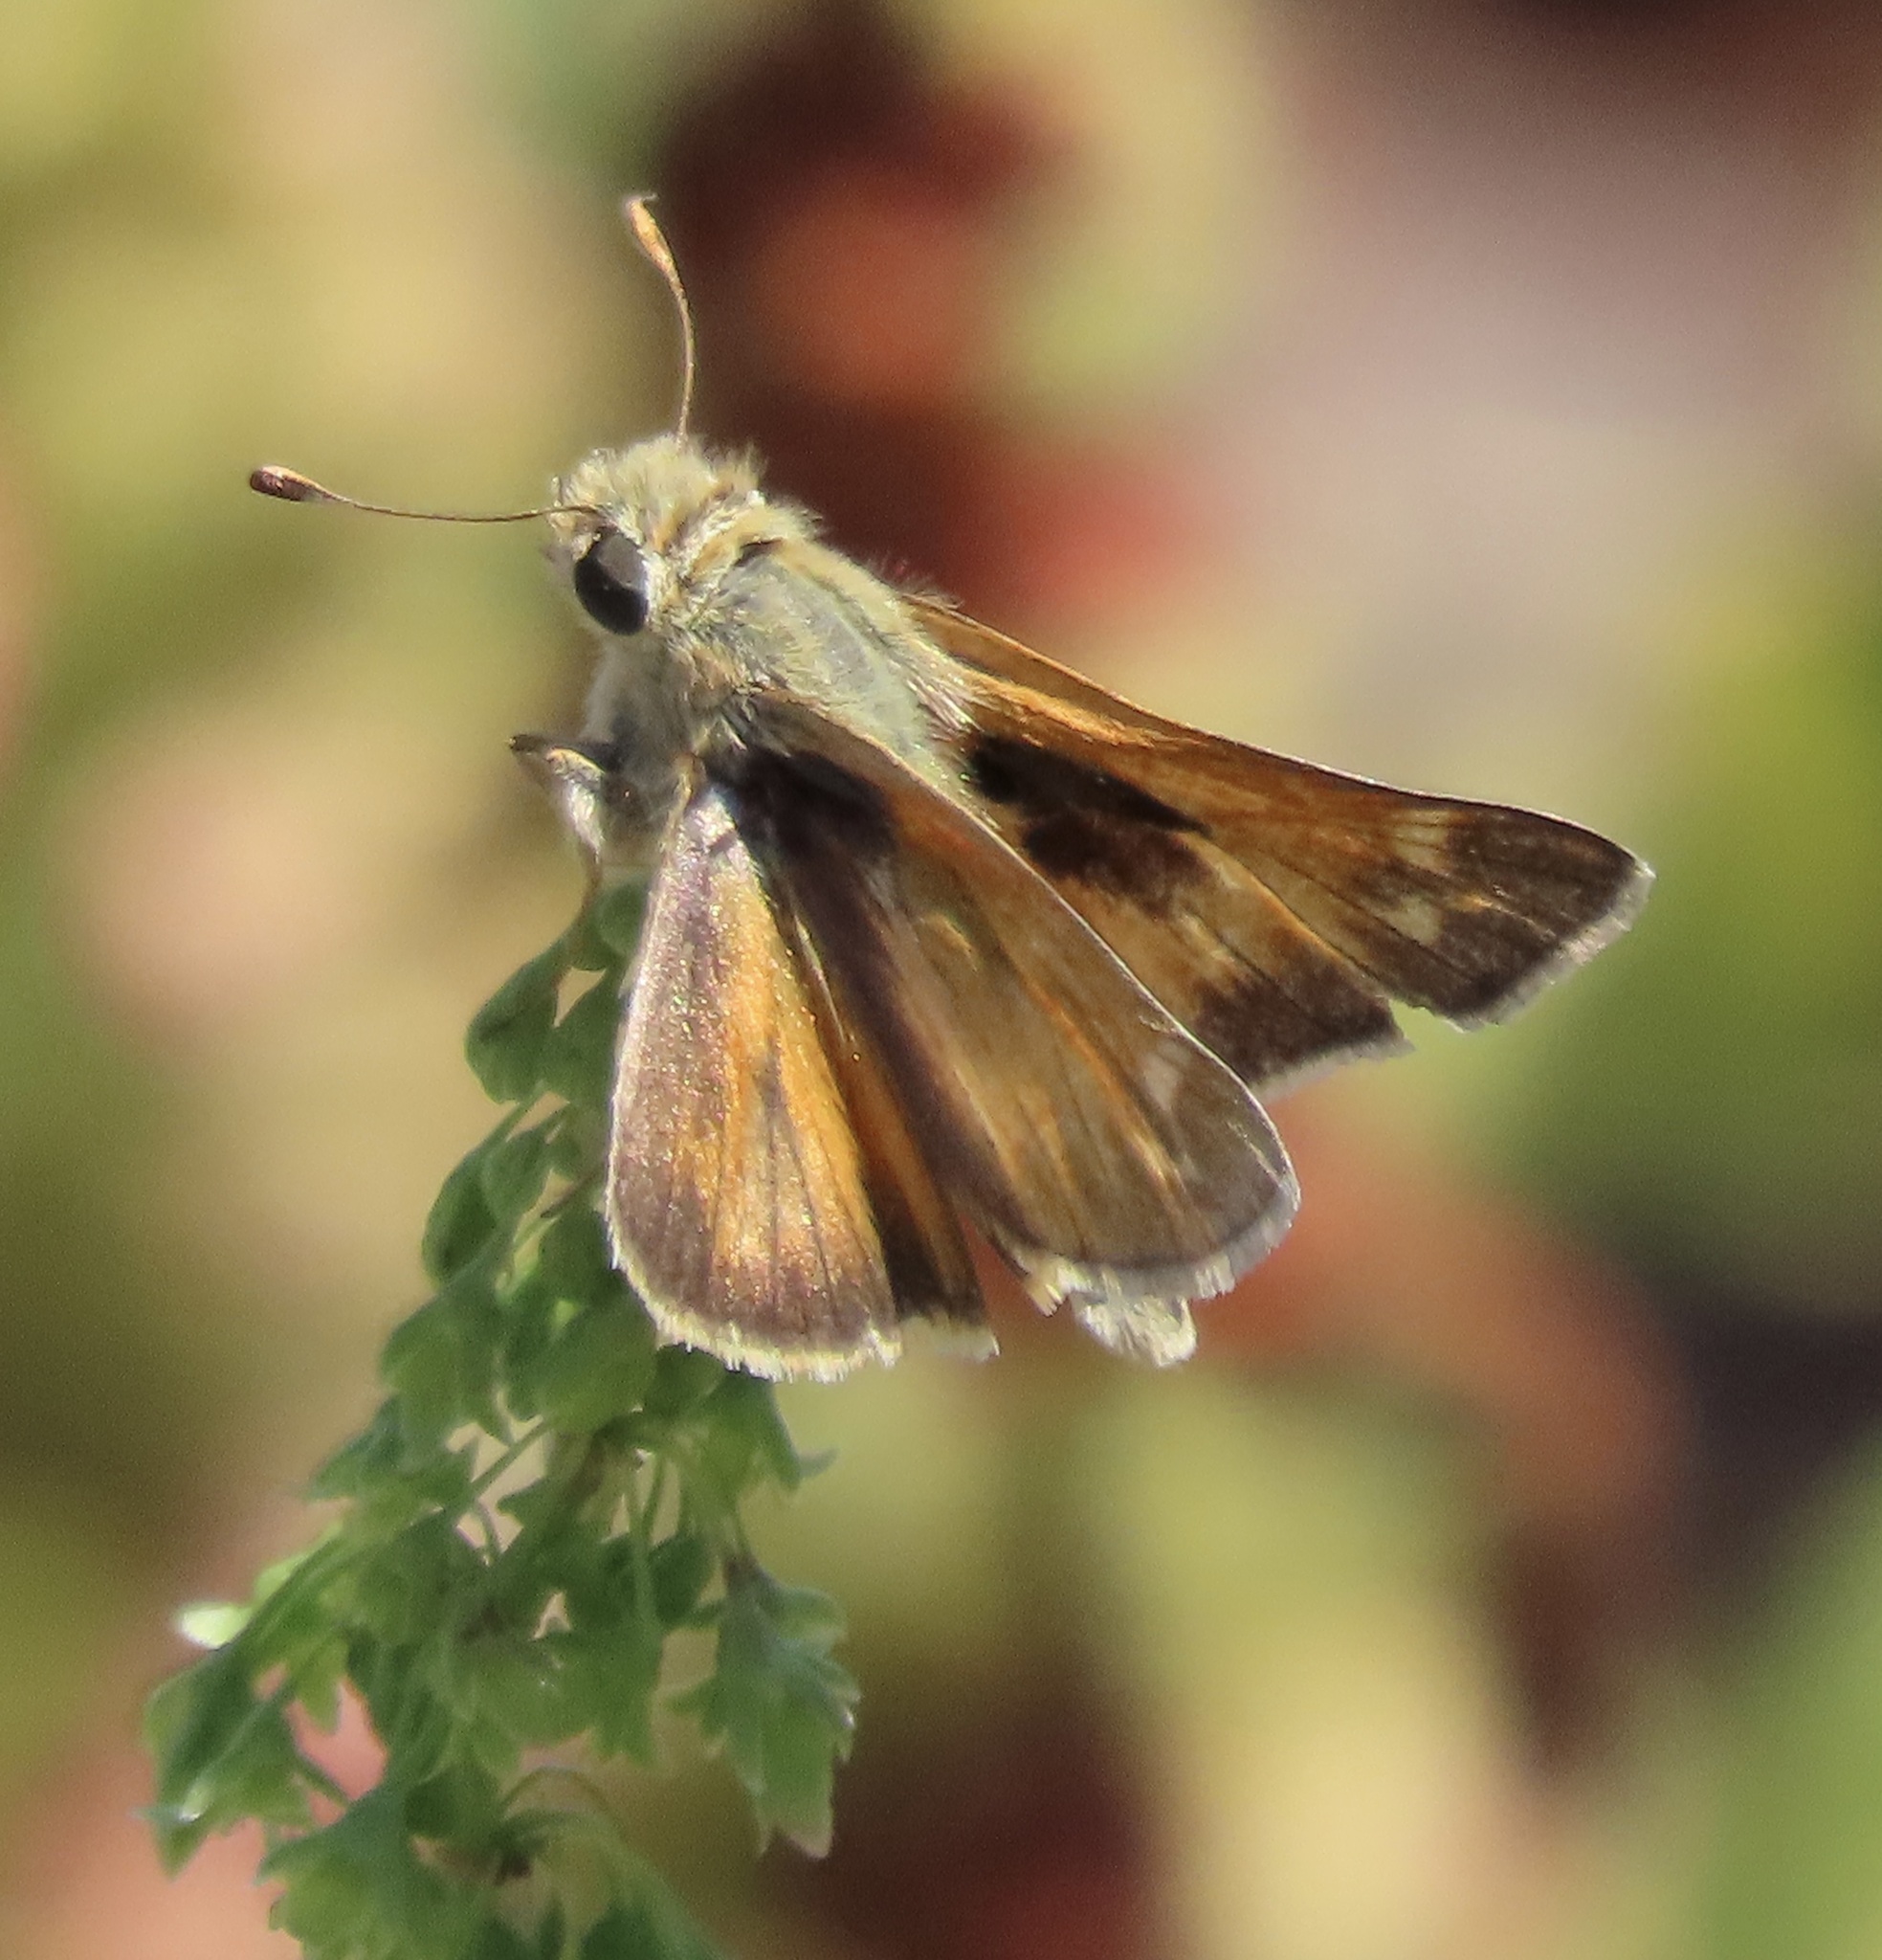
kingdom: Animalia
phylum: Arthropoda
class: Insecta
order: Lepidoptera
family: Hesperiidae
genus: Atalopedes
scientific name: Atalopedes campestris
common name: Sachem
